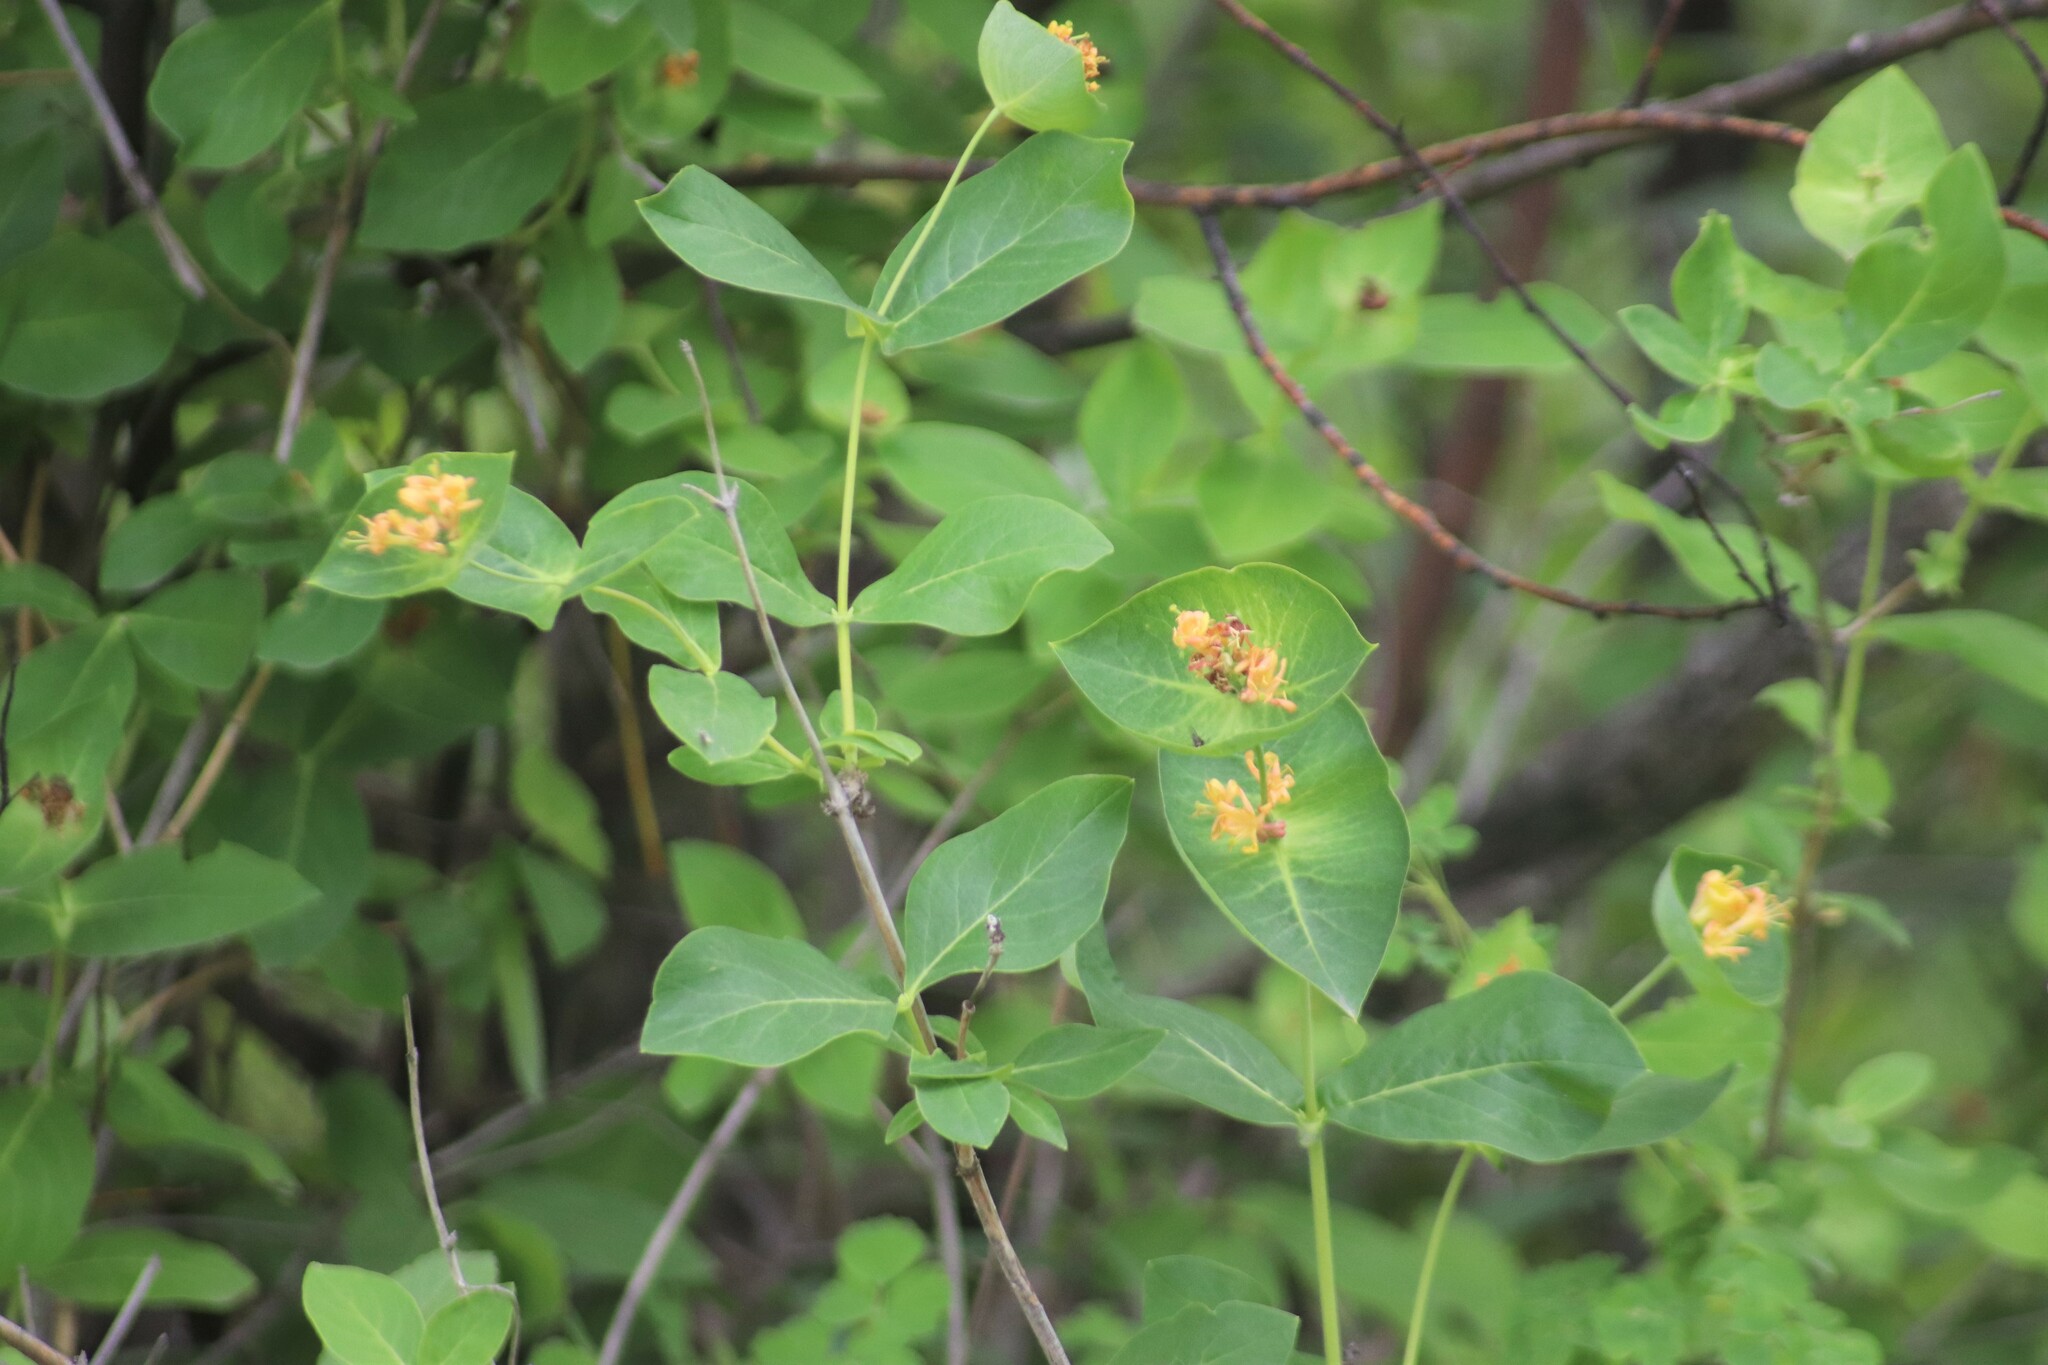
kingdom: Plantae
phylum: Tracheophyta
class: Magnoliopsida
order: Dipsacales
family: Caprifoliaceae
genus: Lonicera
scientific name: Lonicera dioica
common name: Limber honeysuckle
